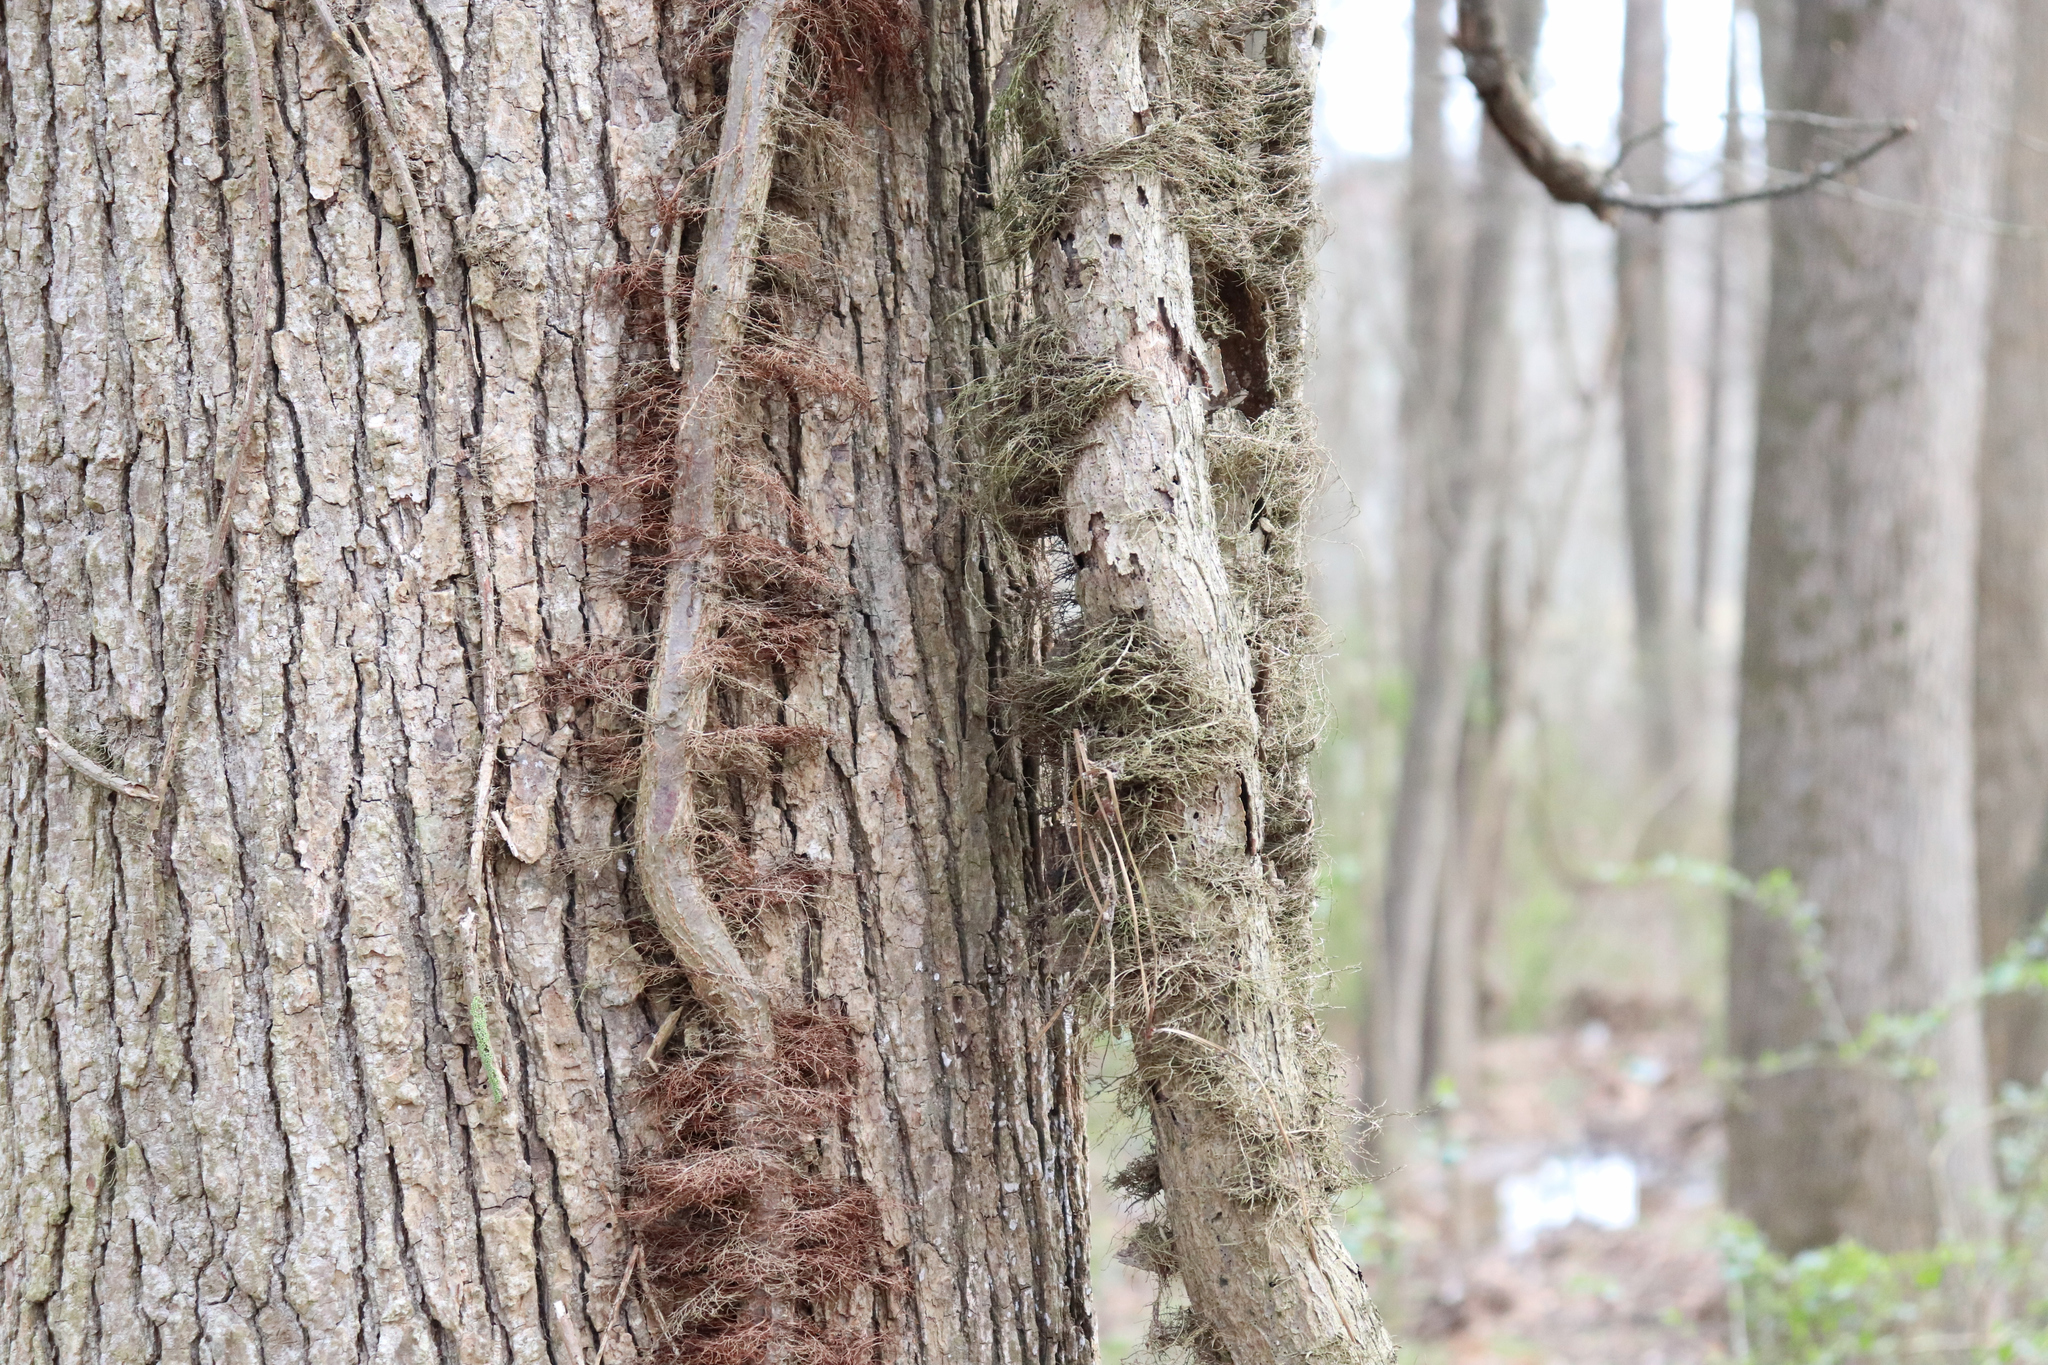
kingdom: Plantae
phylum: Tracheophyta
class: Magnoliopsida
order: Sapindales
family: Anacardiaceae
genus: Toxicodendron
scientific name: Toxicodendron radicans
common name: Poison ivy
